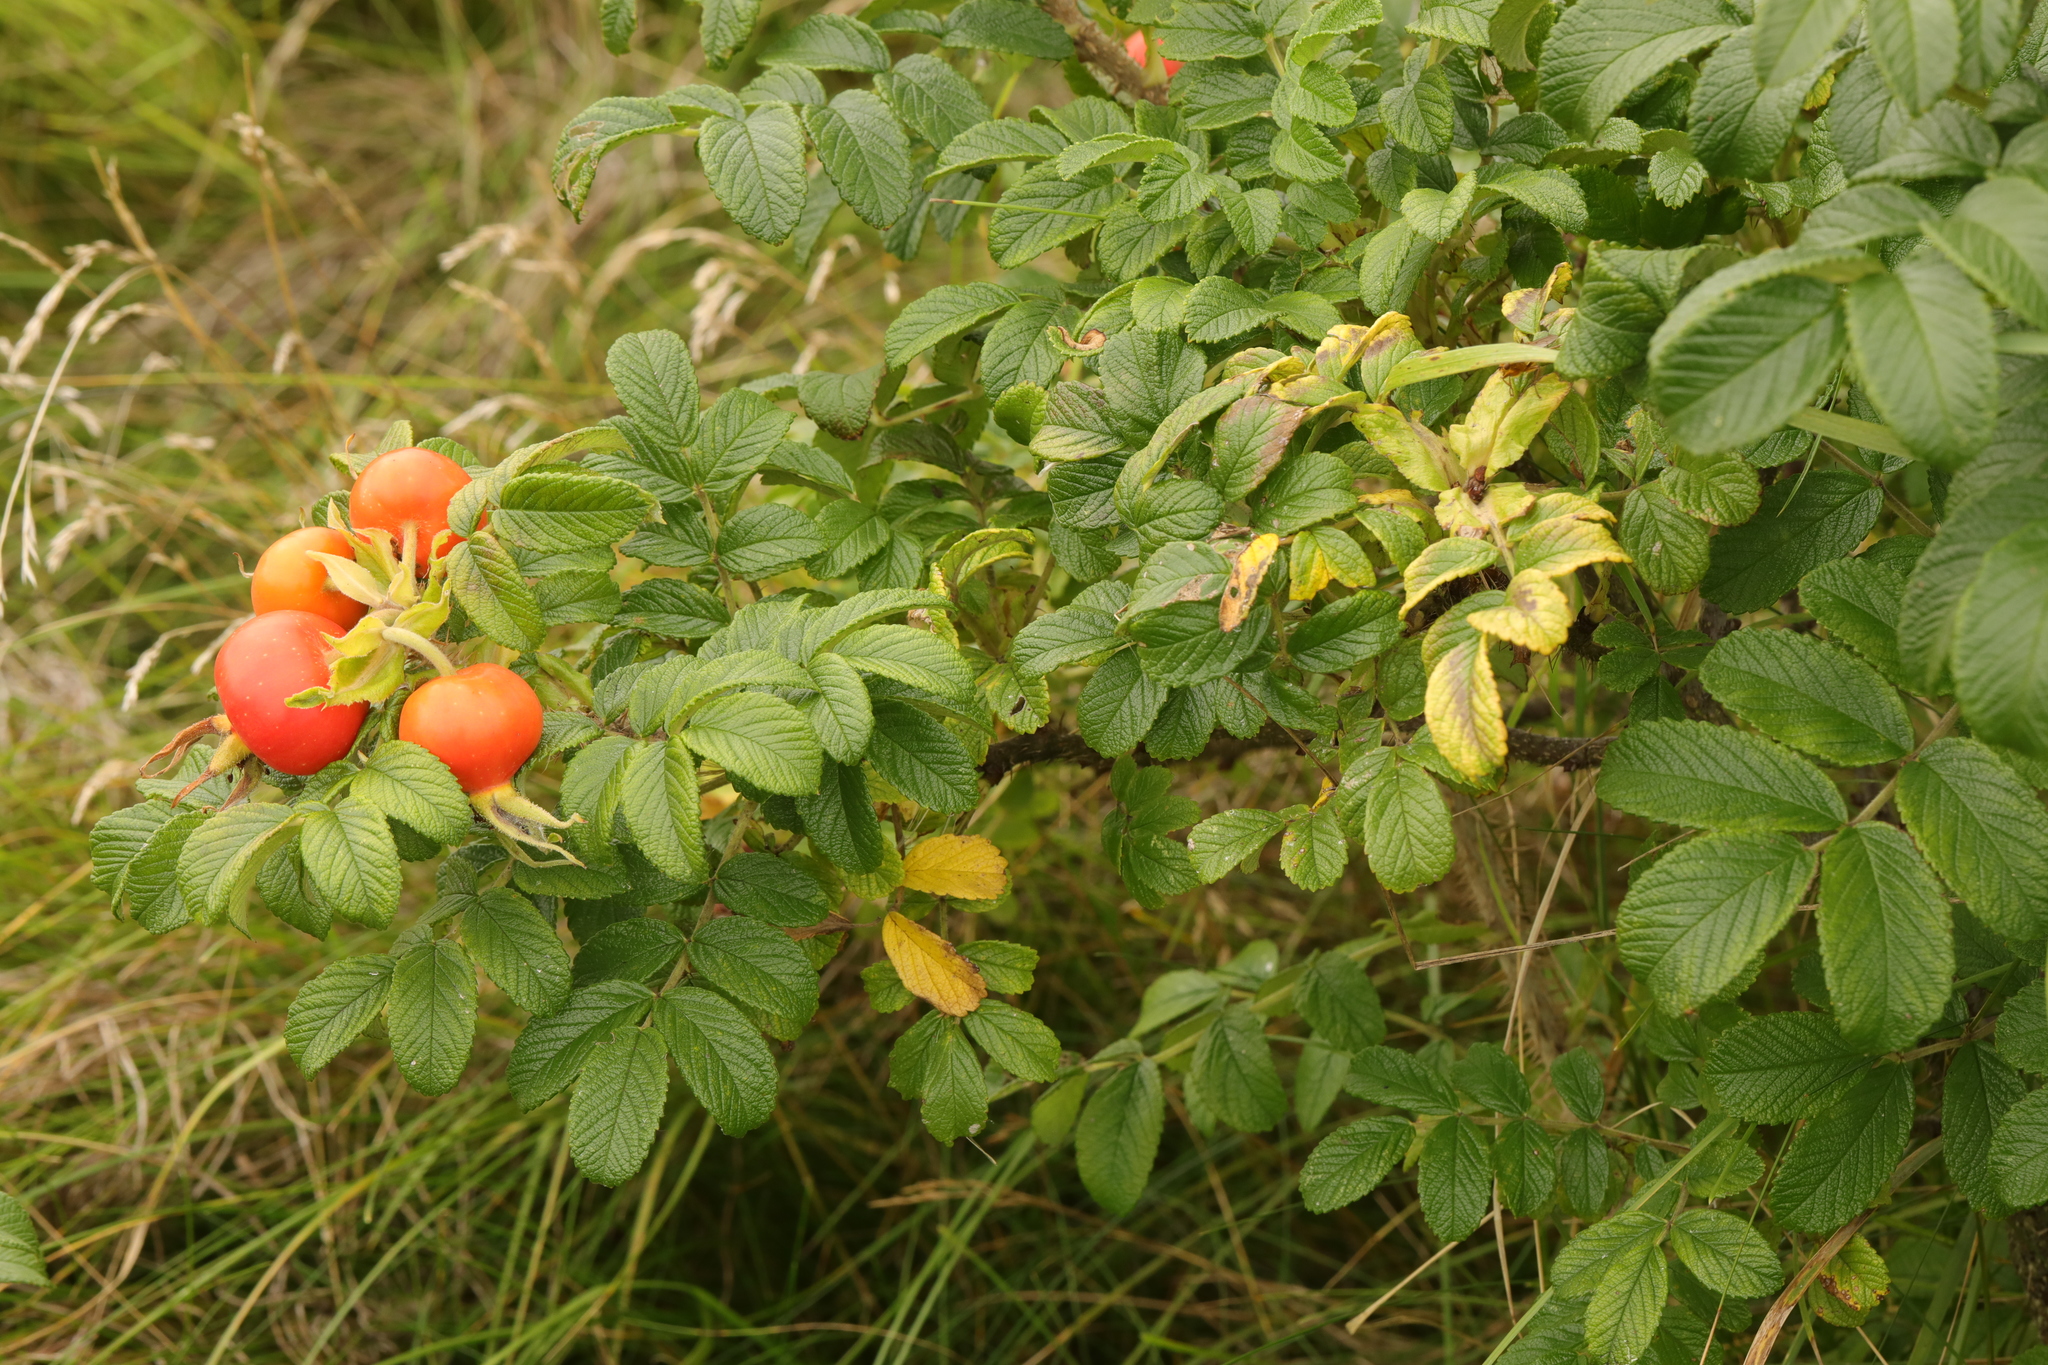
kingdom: Plantae
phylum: Tracheophyta
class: Magnoliopsida
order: Rosales
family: Rosaceae
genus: Rosa
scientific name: Rosa rugosa
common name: Japanese rose
